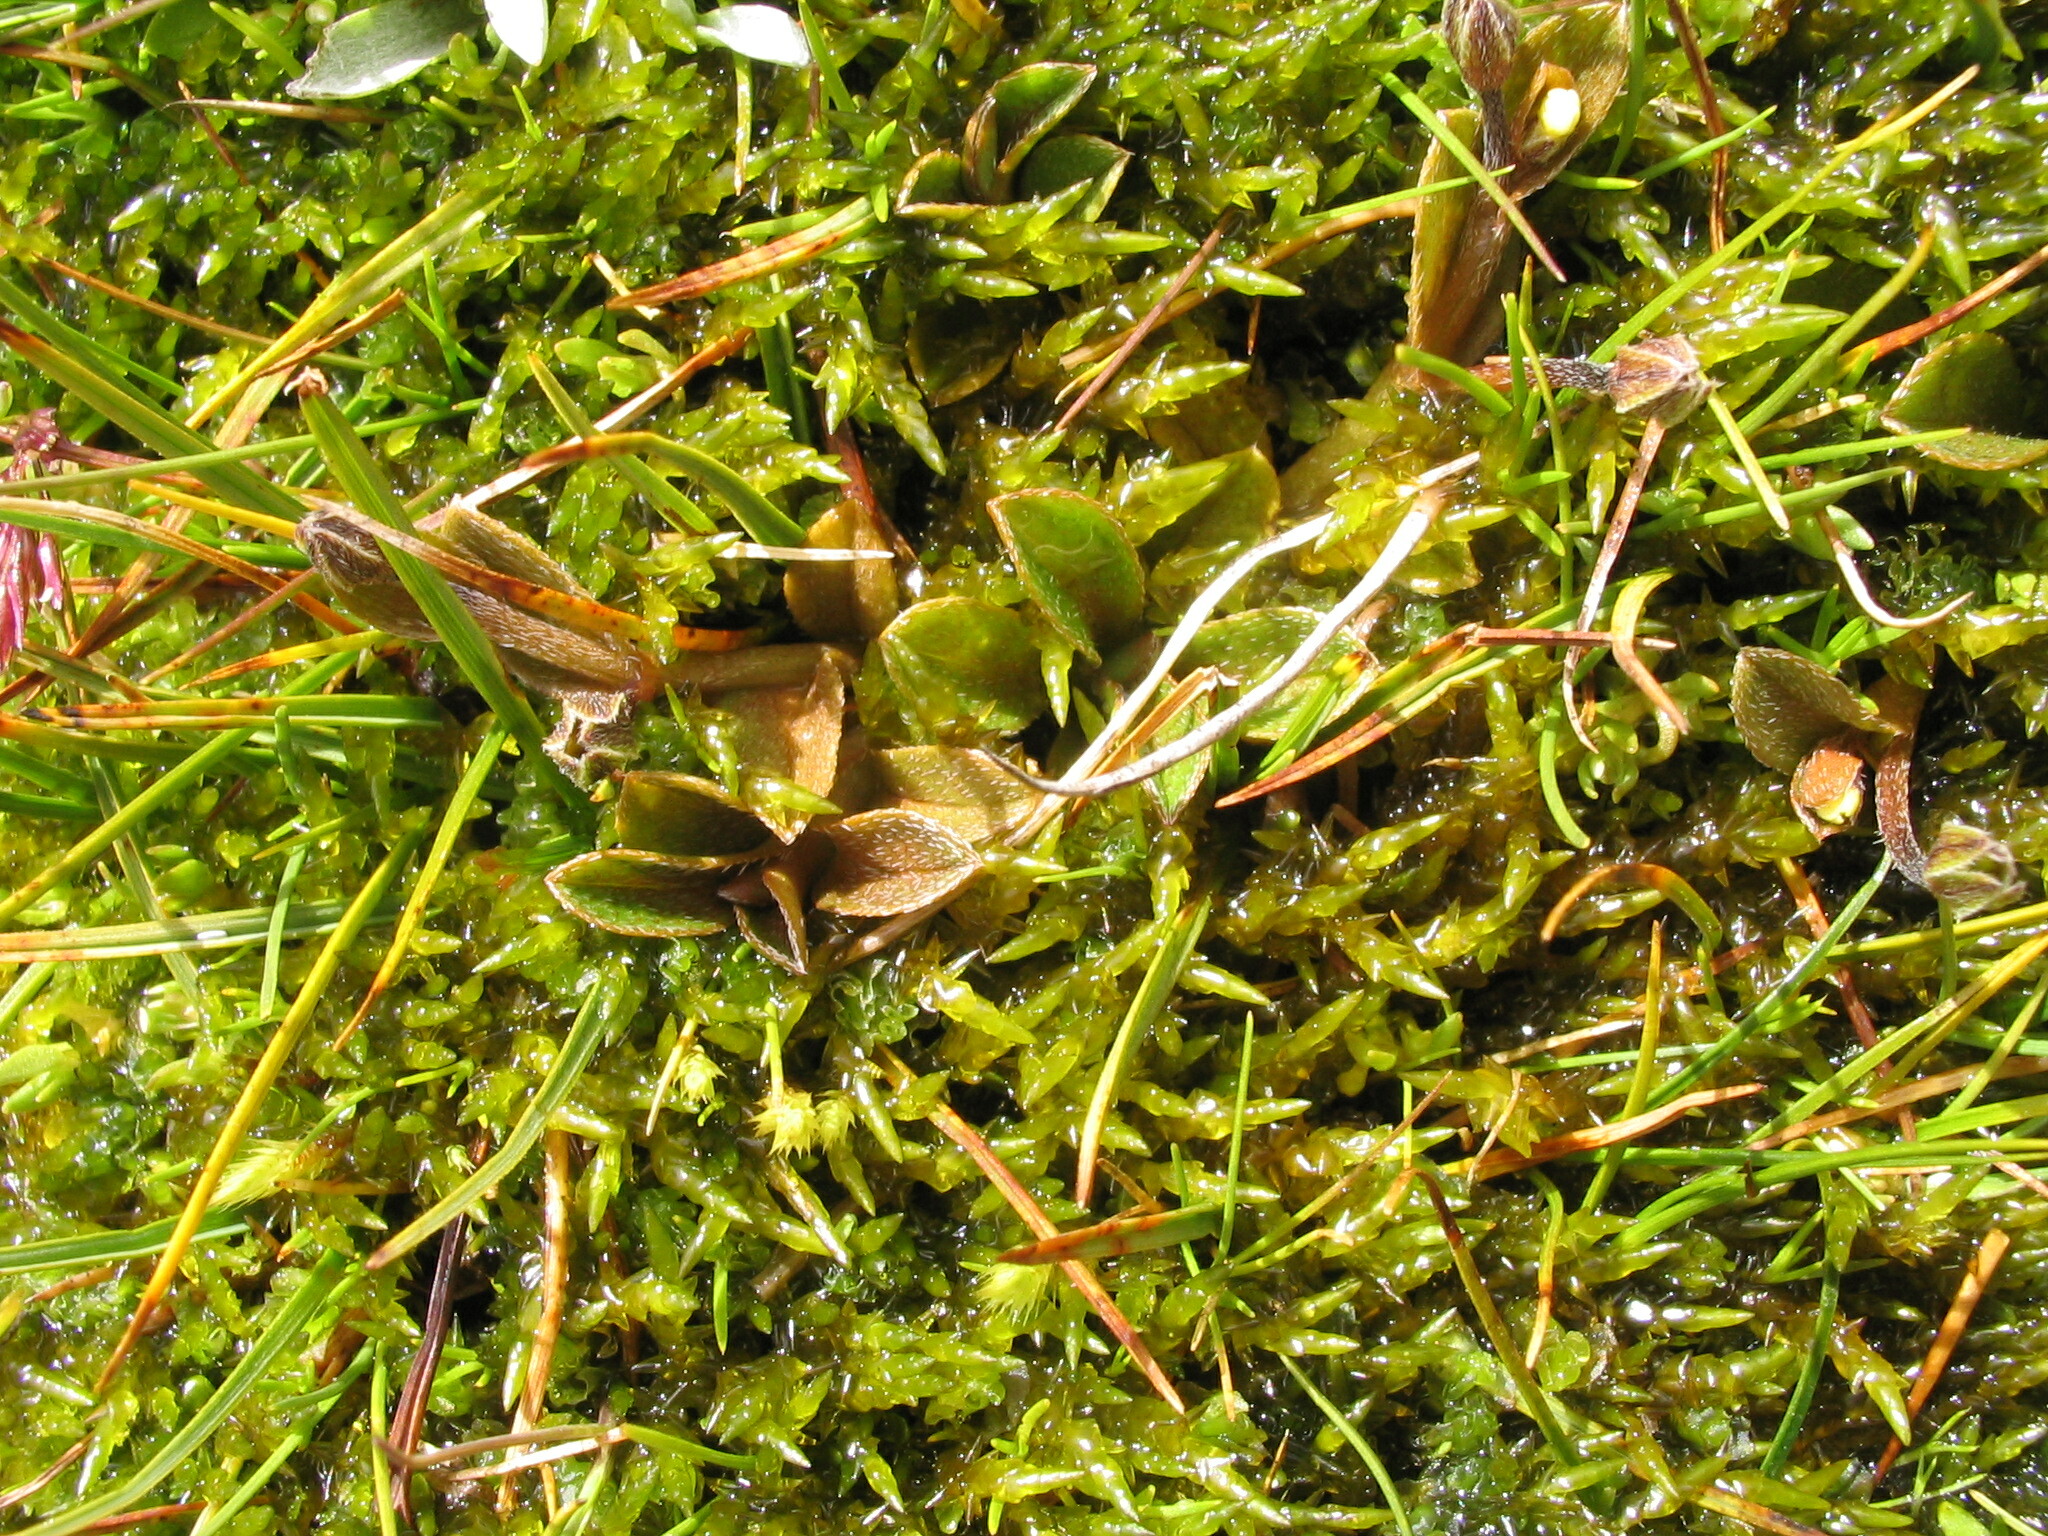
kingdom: Plantae
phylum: Tracheophyta
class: Magnoliopsida
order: Boraginales
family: Boraginaceae
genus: Myosotis
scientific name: Myosotis bryonoma
